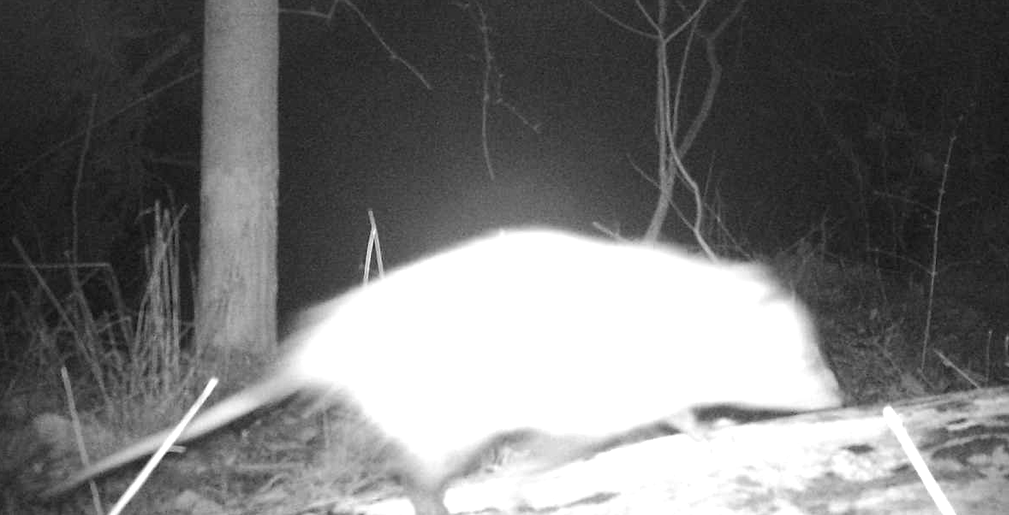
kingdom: Animalia
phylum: Chordata
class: Mammalia
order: Didelphimorphia
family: Didelphidae
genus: Didelphis
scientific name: Didelphis virginiana
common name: Virginia opossum
